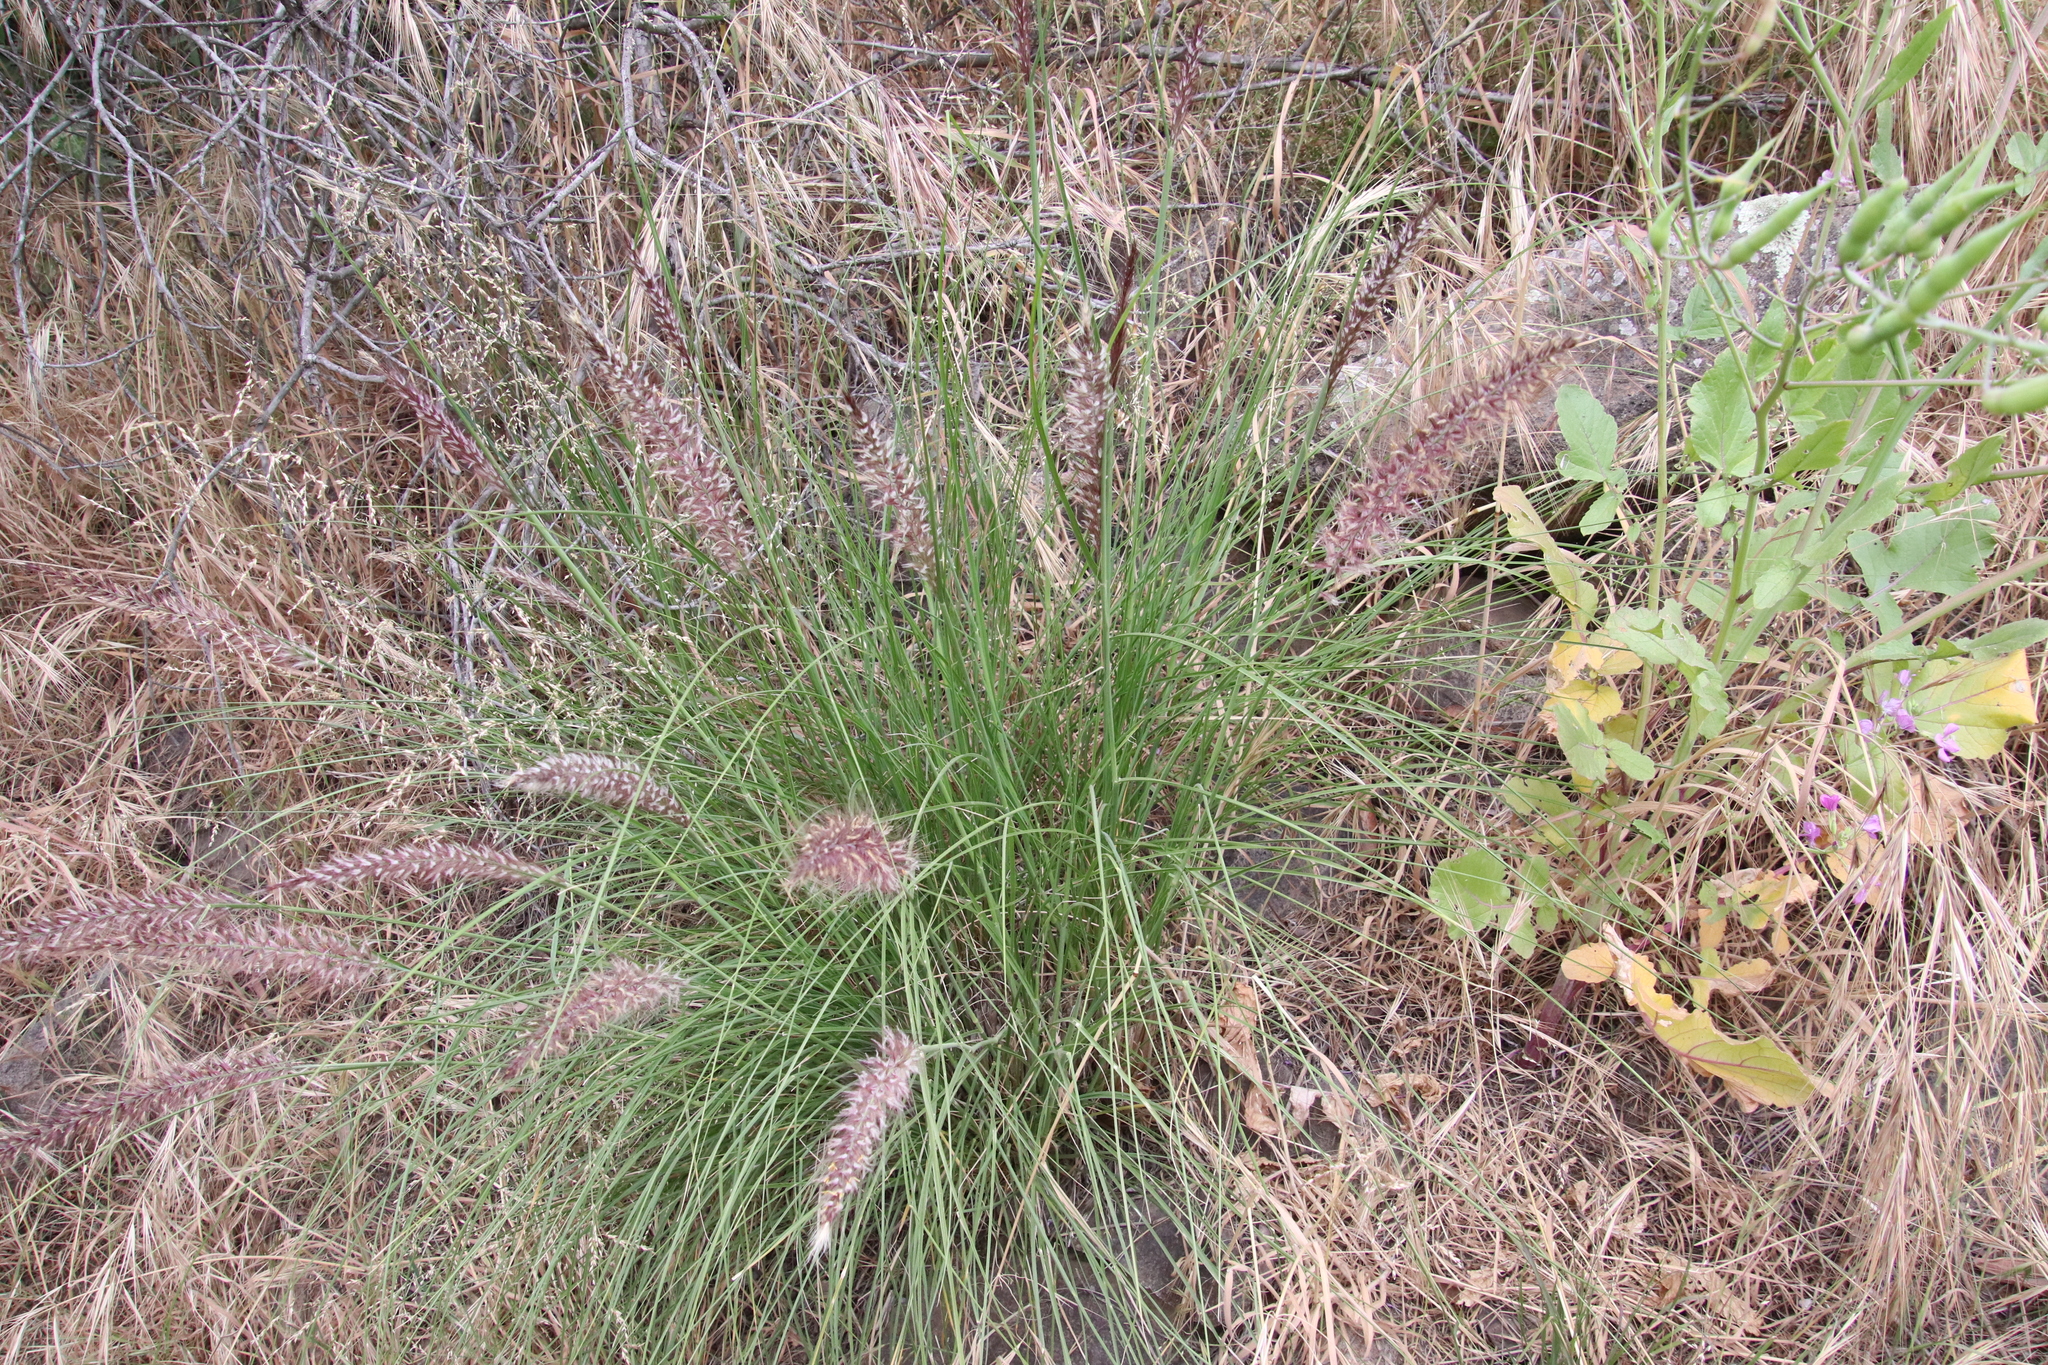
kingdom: Plantae
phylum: Tracheophyta
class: Liliopsida
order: Poales
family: Poaceae
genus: Cenchrus
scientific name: Cenchrus setaceus
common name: Crimson fountaingrass
